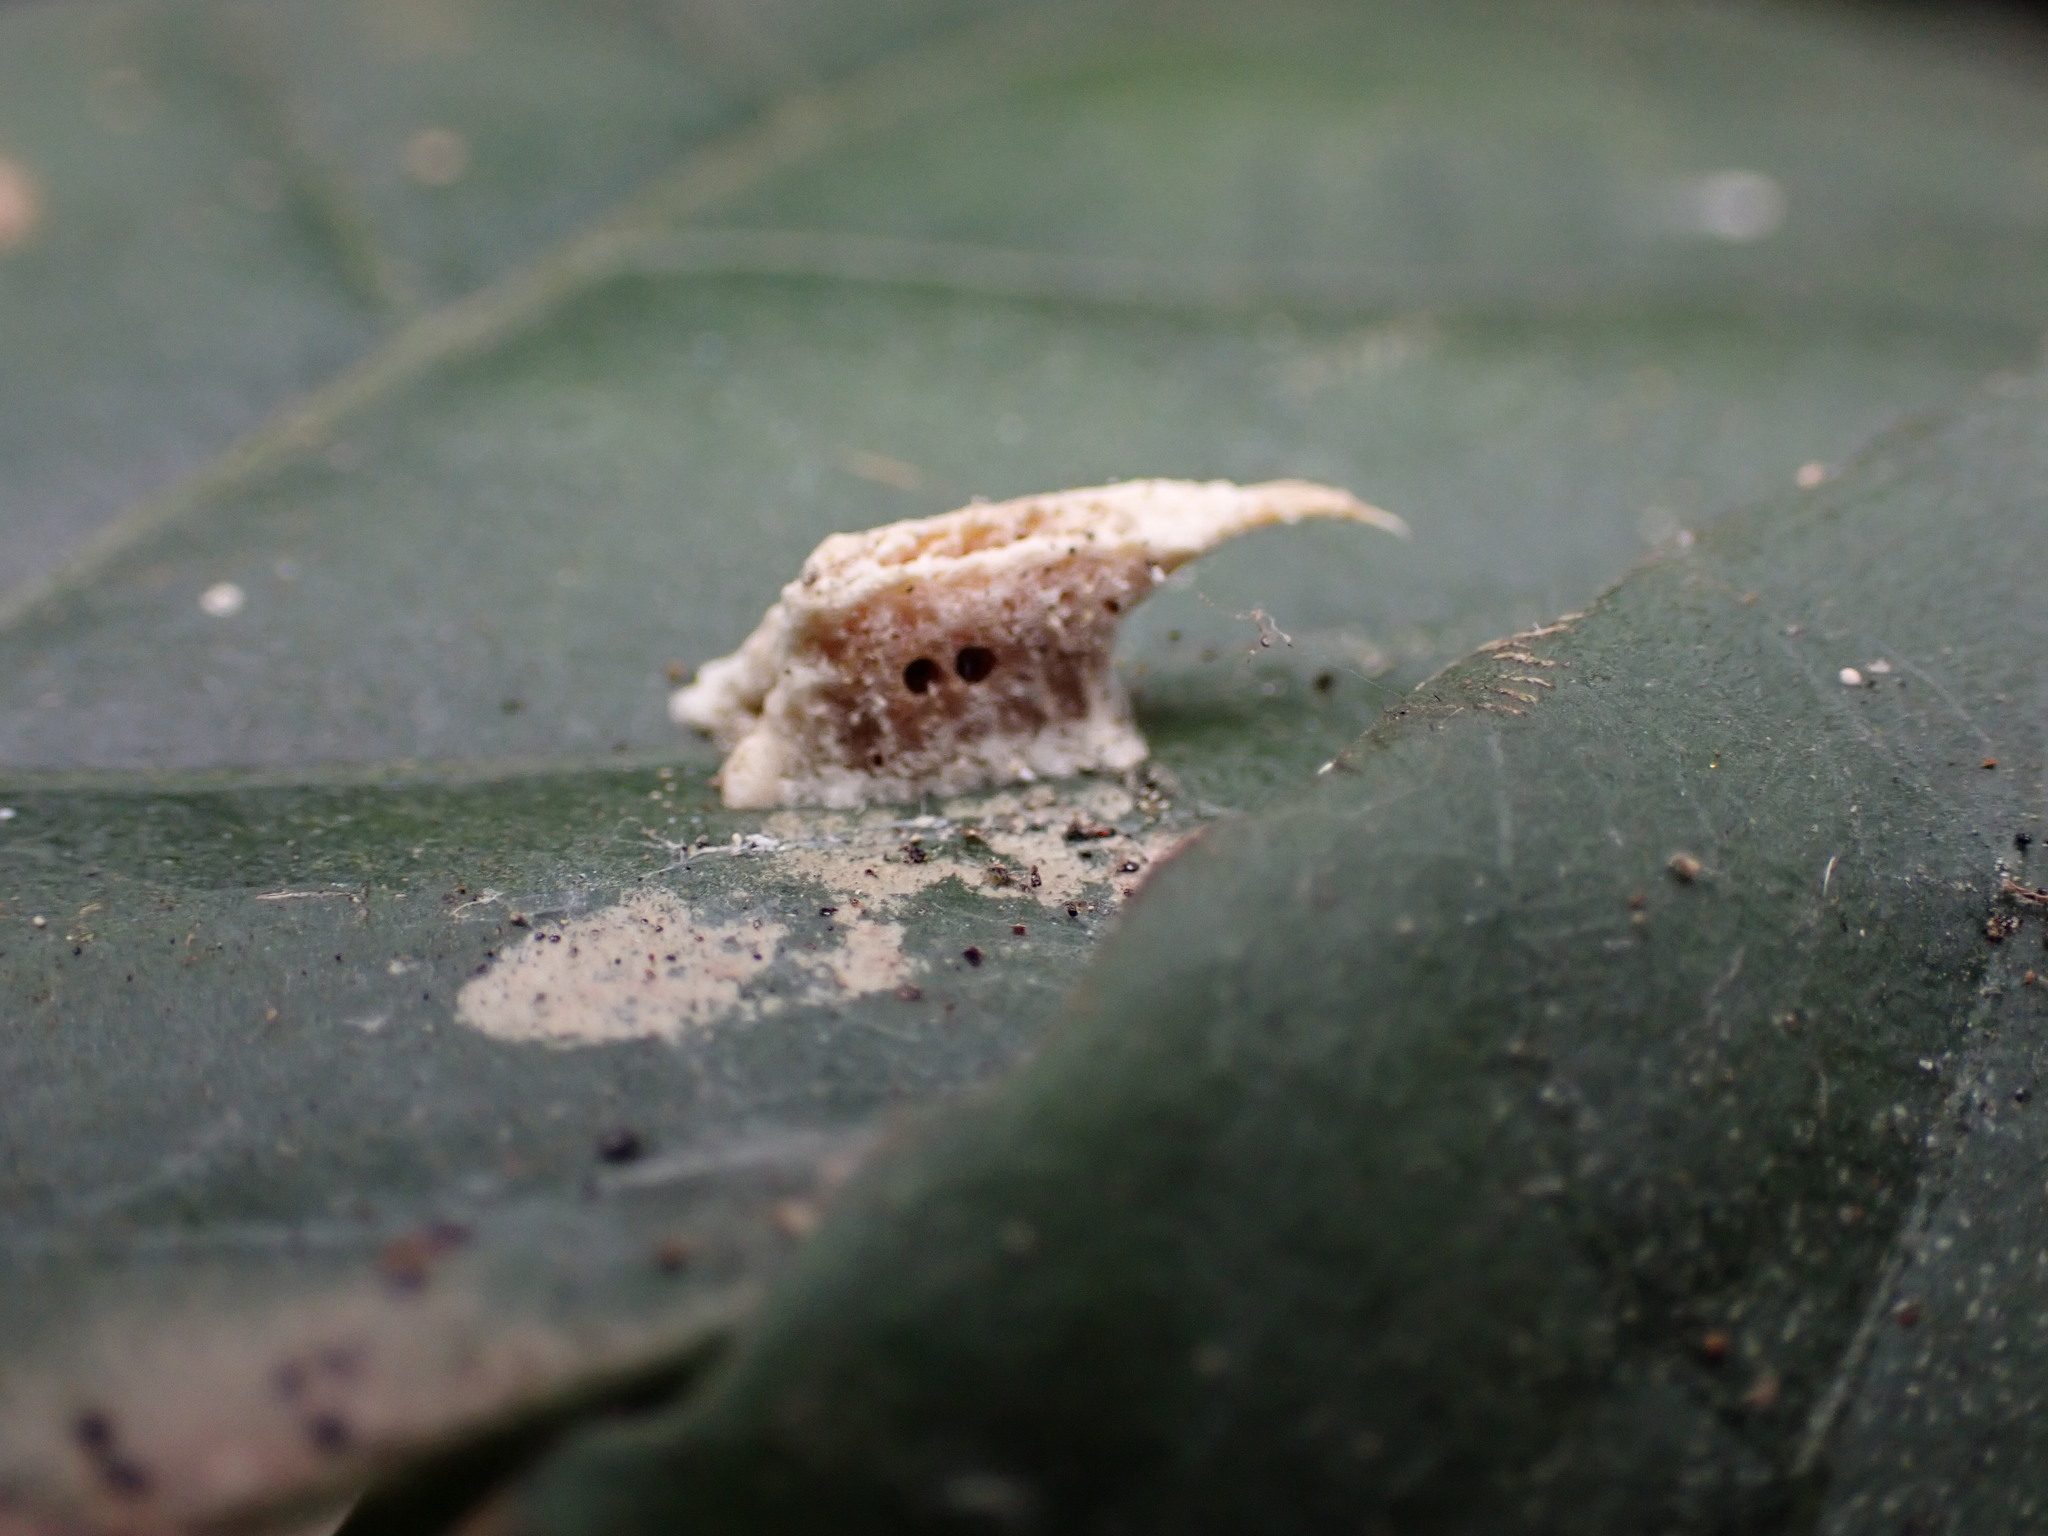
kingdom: Animalia
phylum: Arthropoda
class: Insecta
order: Mantodea
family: Gonypetidae
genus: Amantis
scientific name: Amantis nawai
